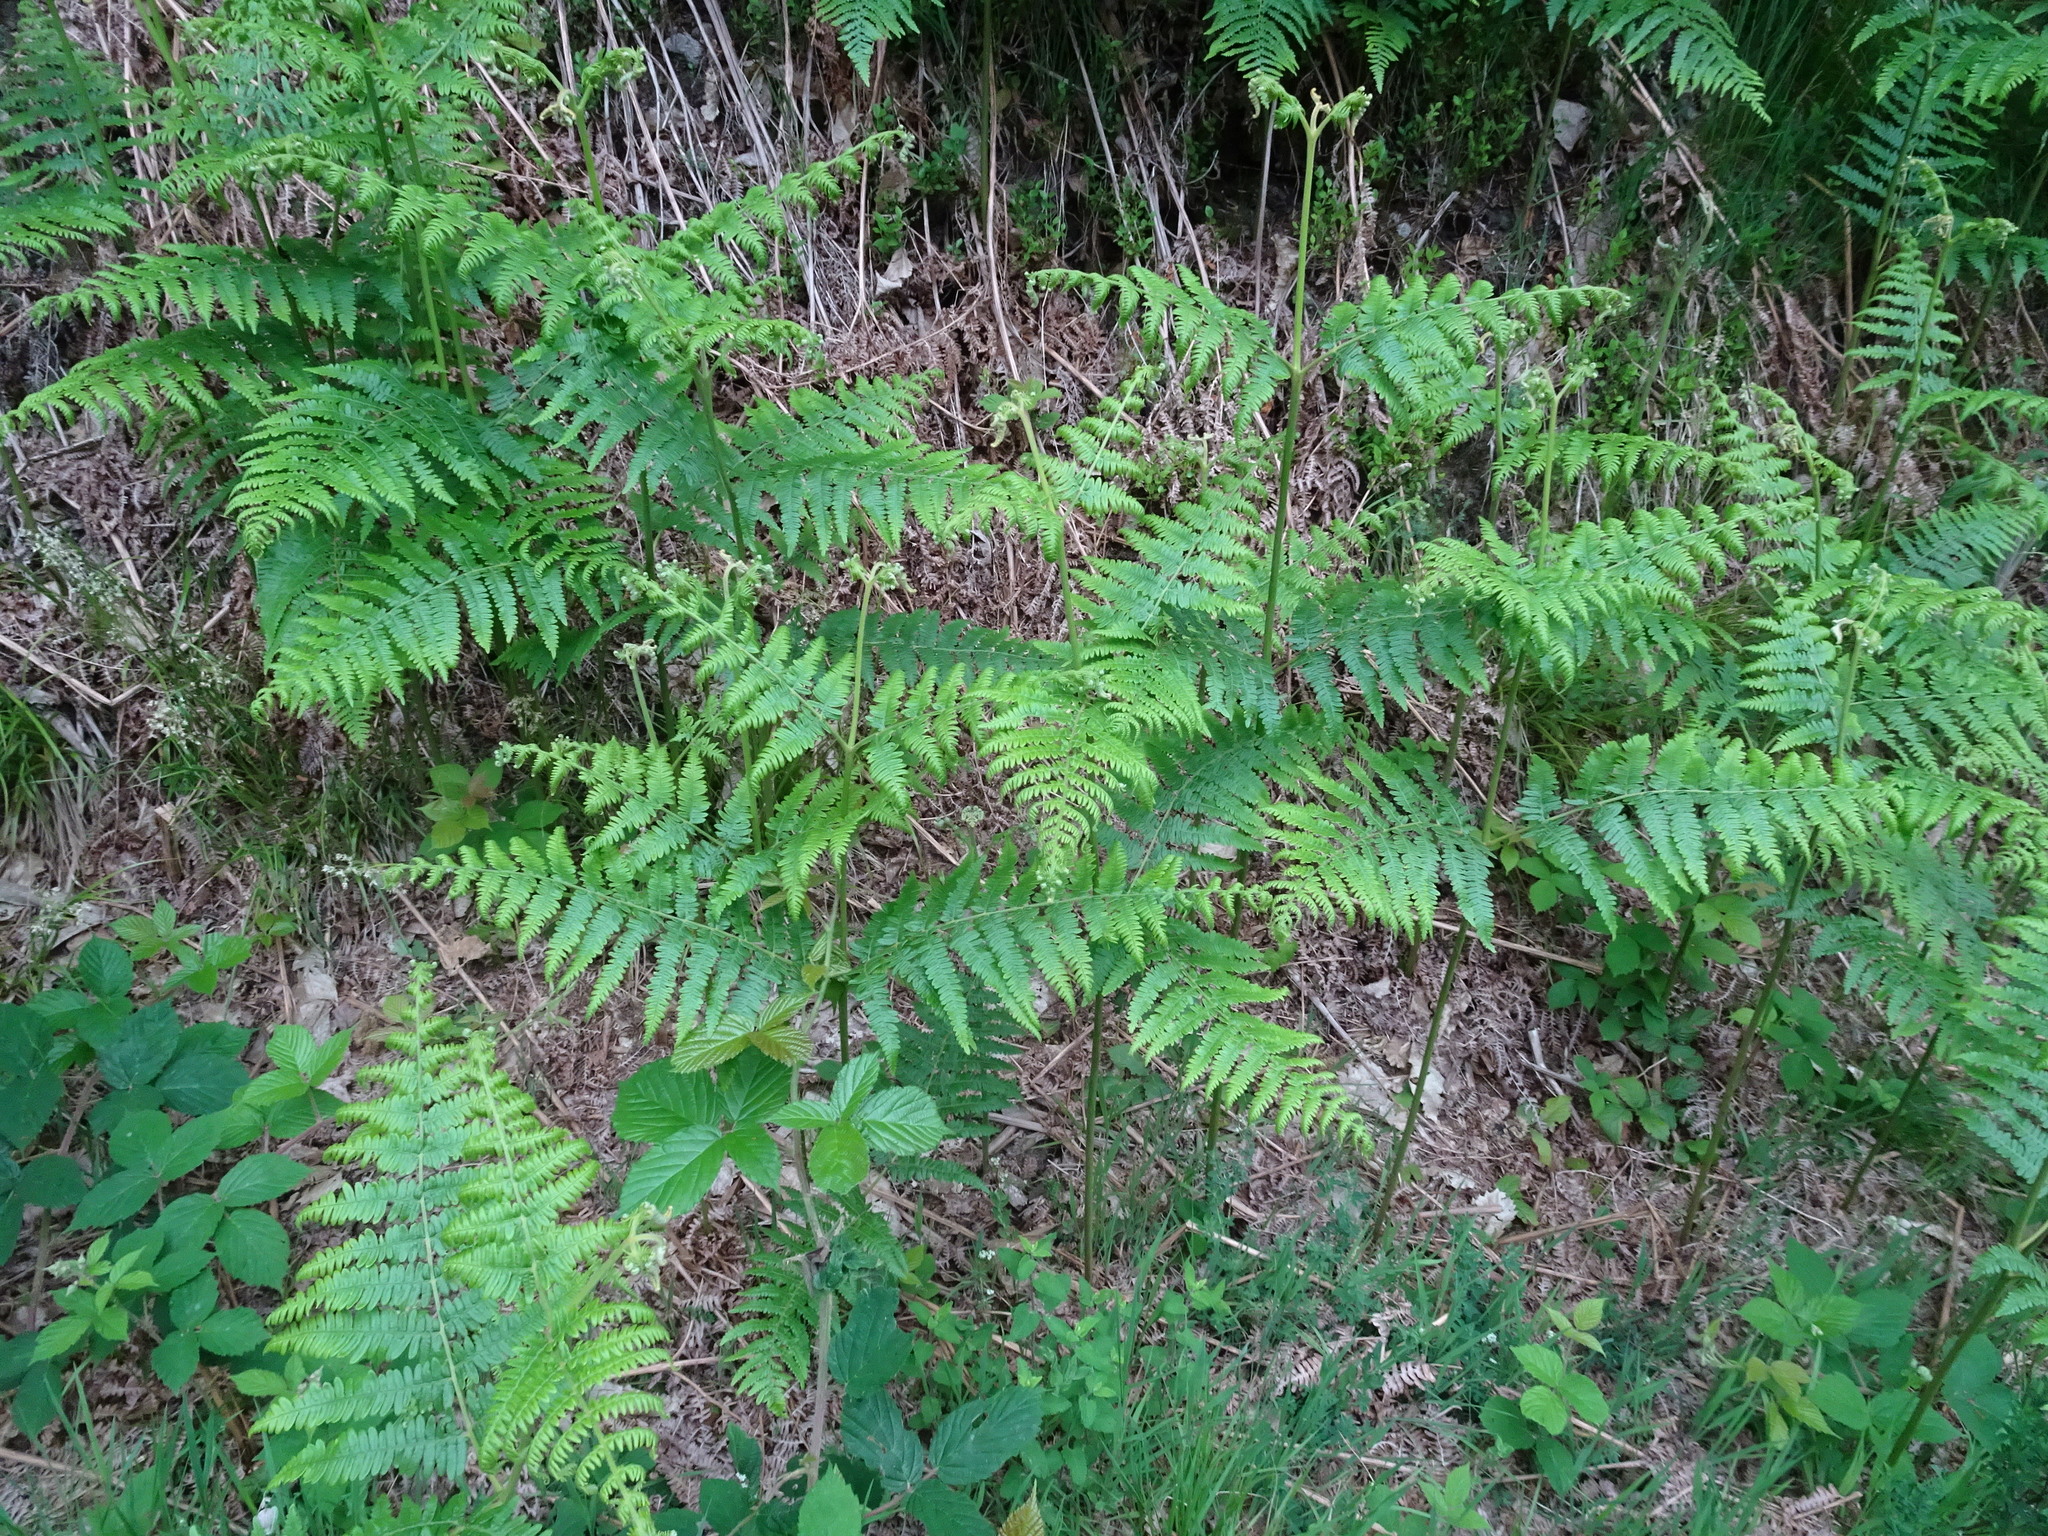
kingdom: Plantae
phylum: Tracheophyta
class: Polypodiopsida
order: Polypodiales
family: Dennstaedtiaceae
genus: Pteridium
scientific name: Pteridium aquilinum
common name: Bracken
